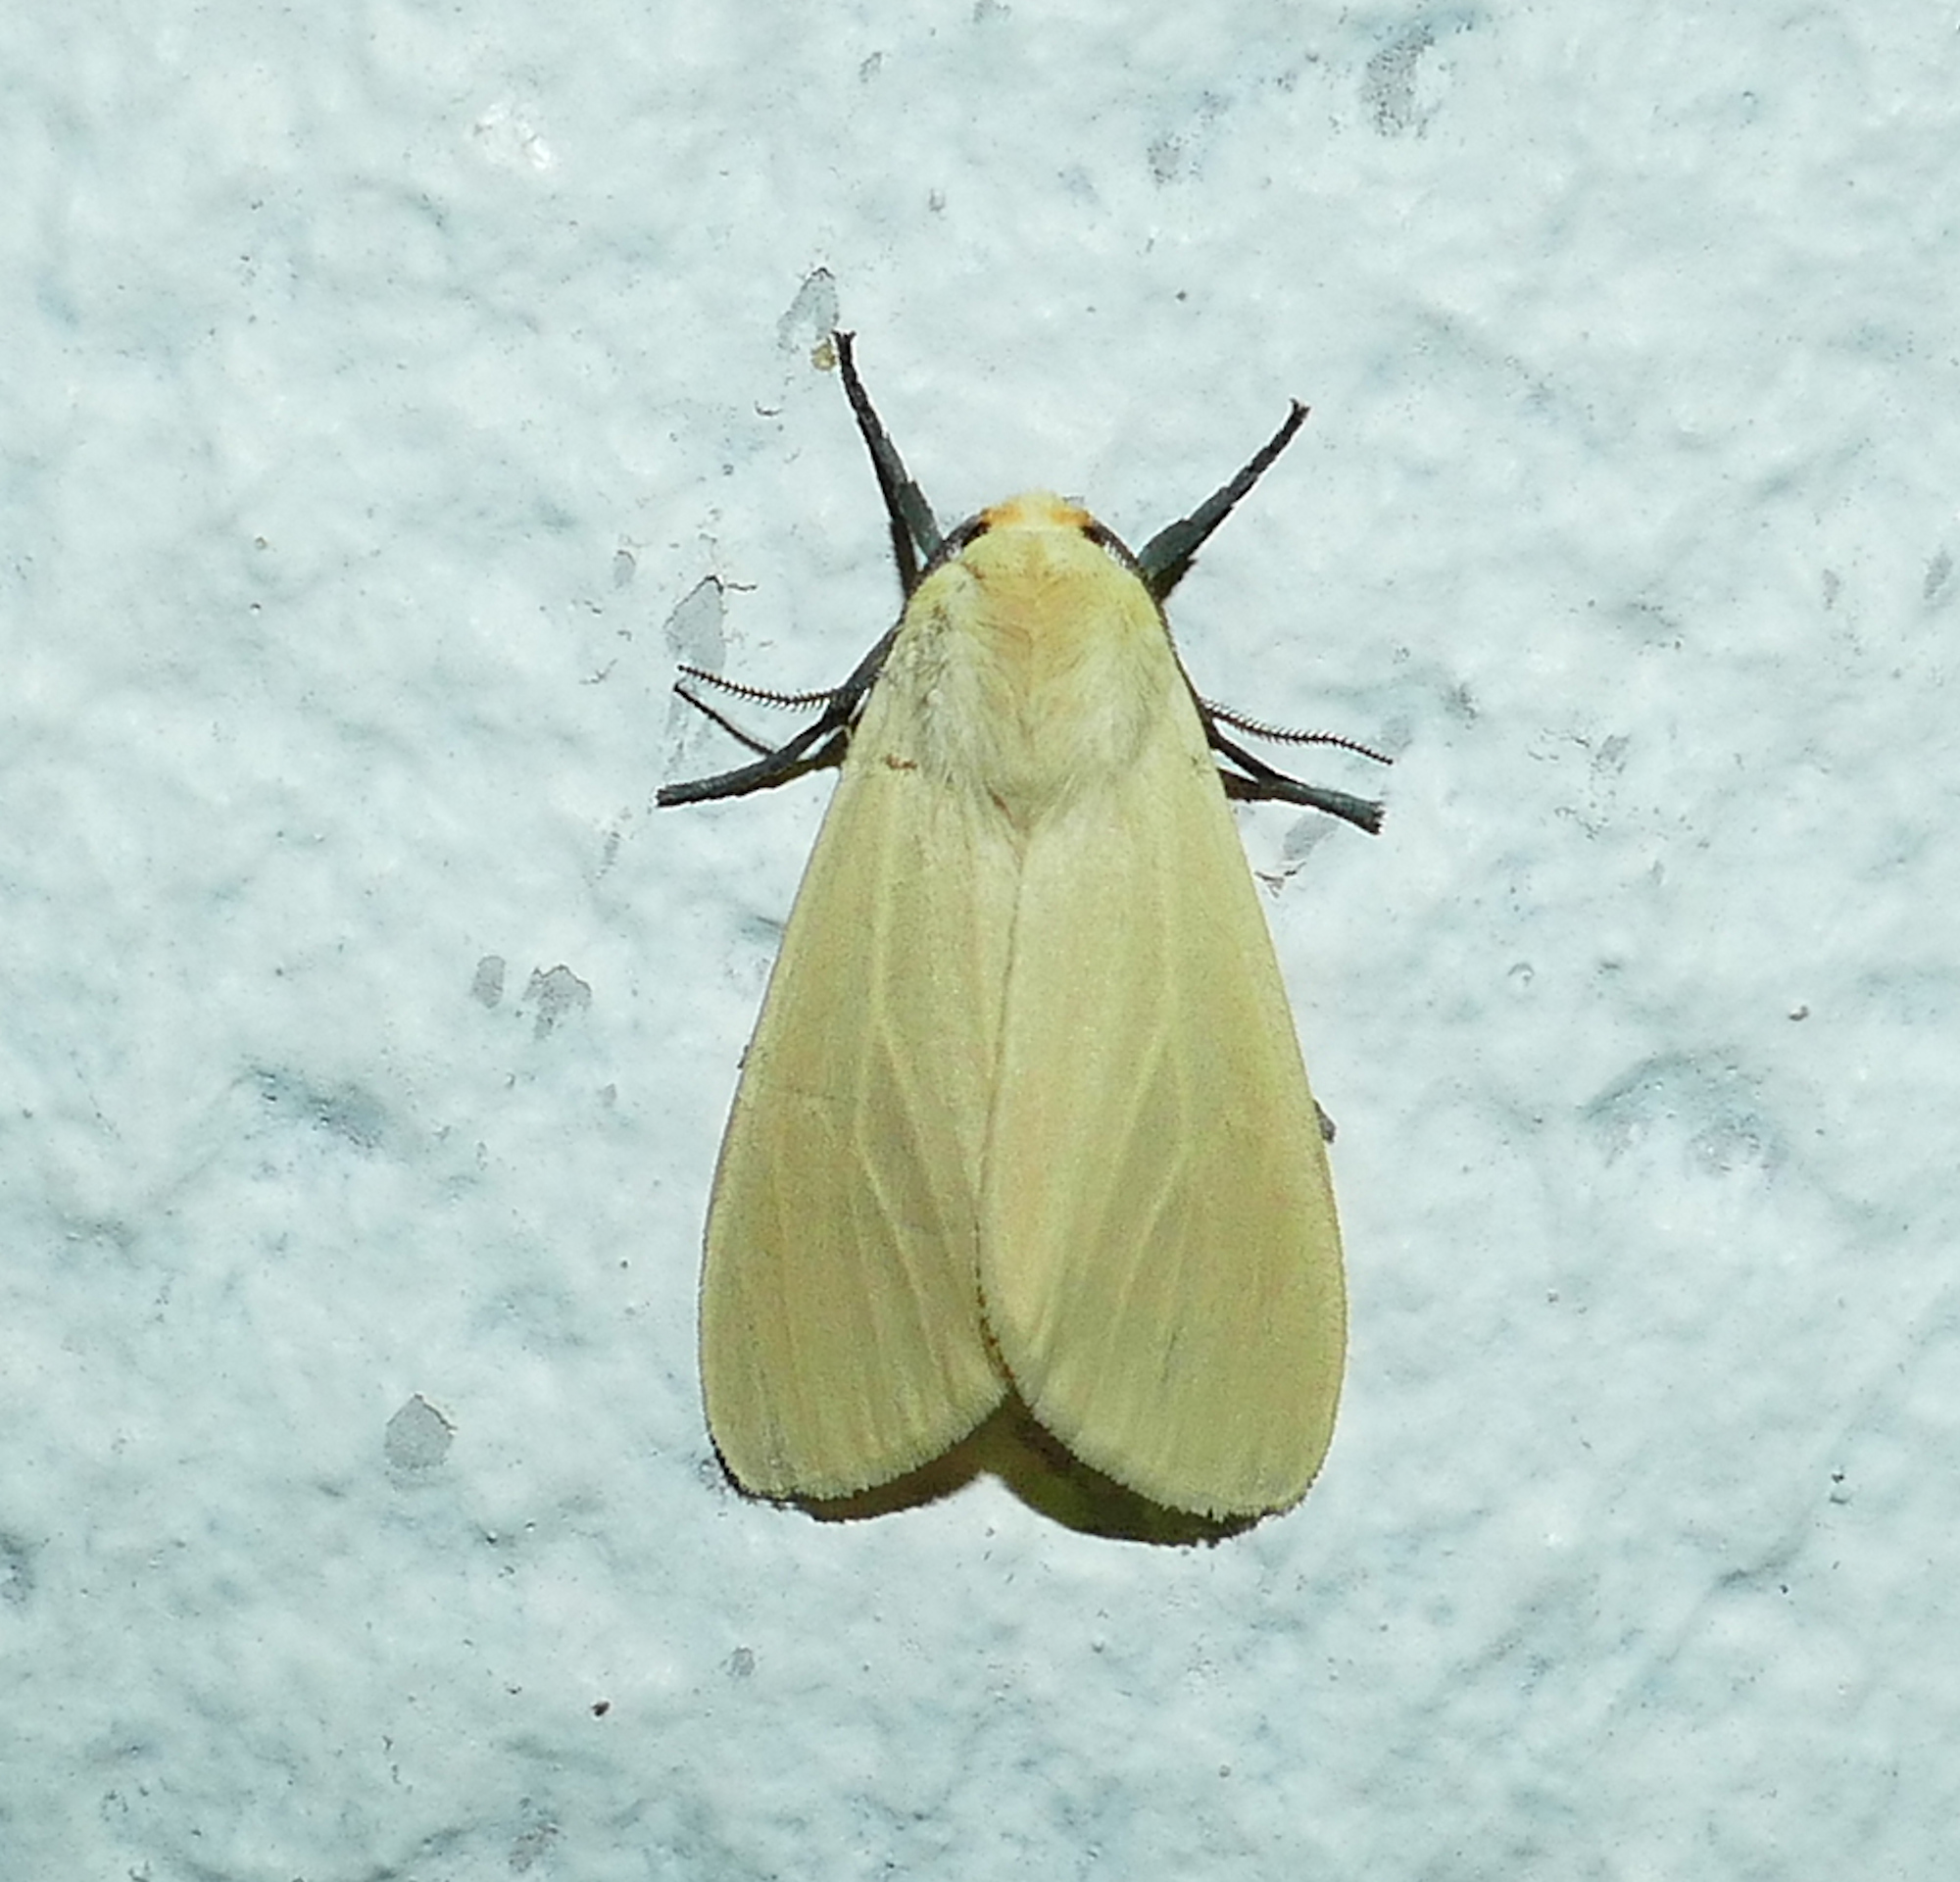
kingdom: Animalia
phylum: Arthropoda
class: Insecta
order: Lepidoptera
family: Erebidae
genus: Pareuchaetes
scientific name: Pareuchaetes insulata
